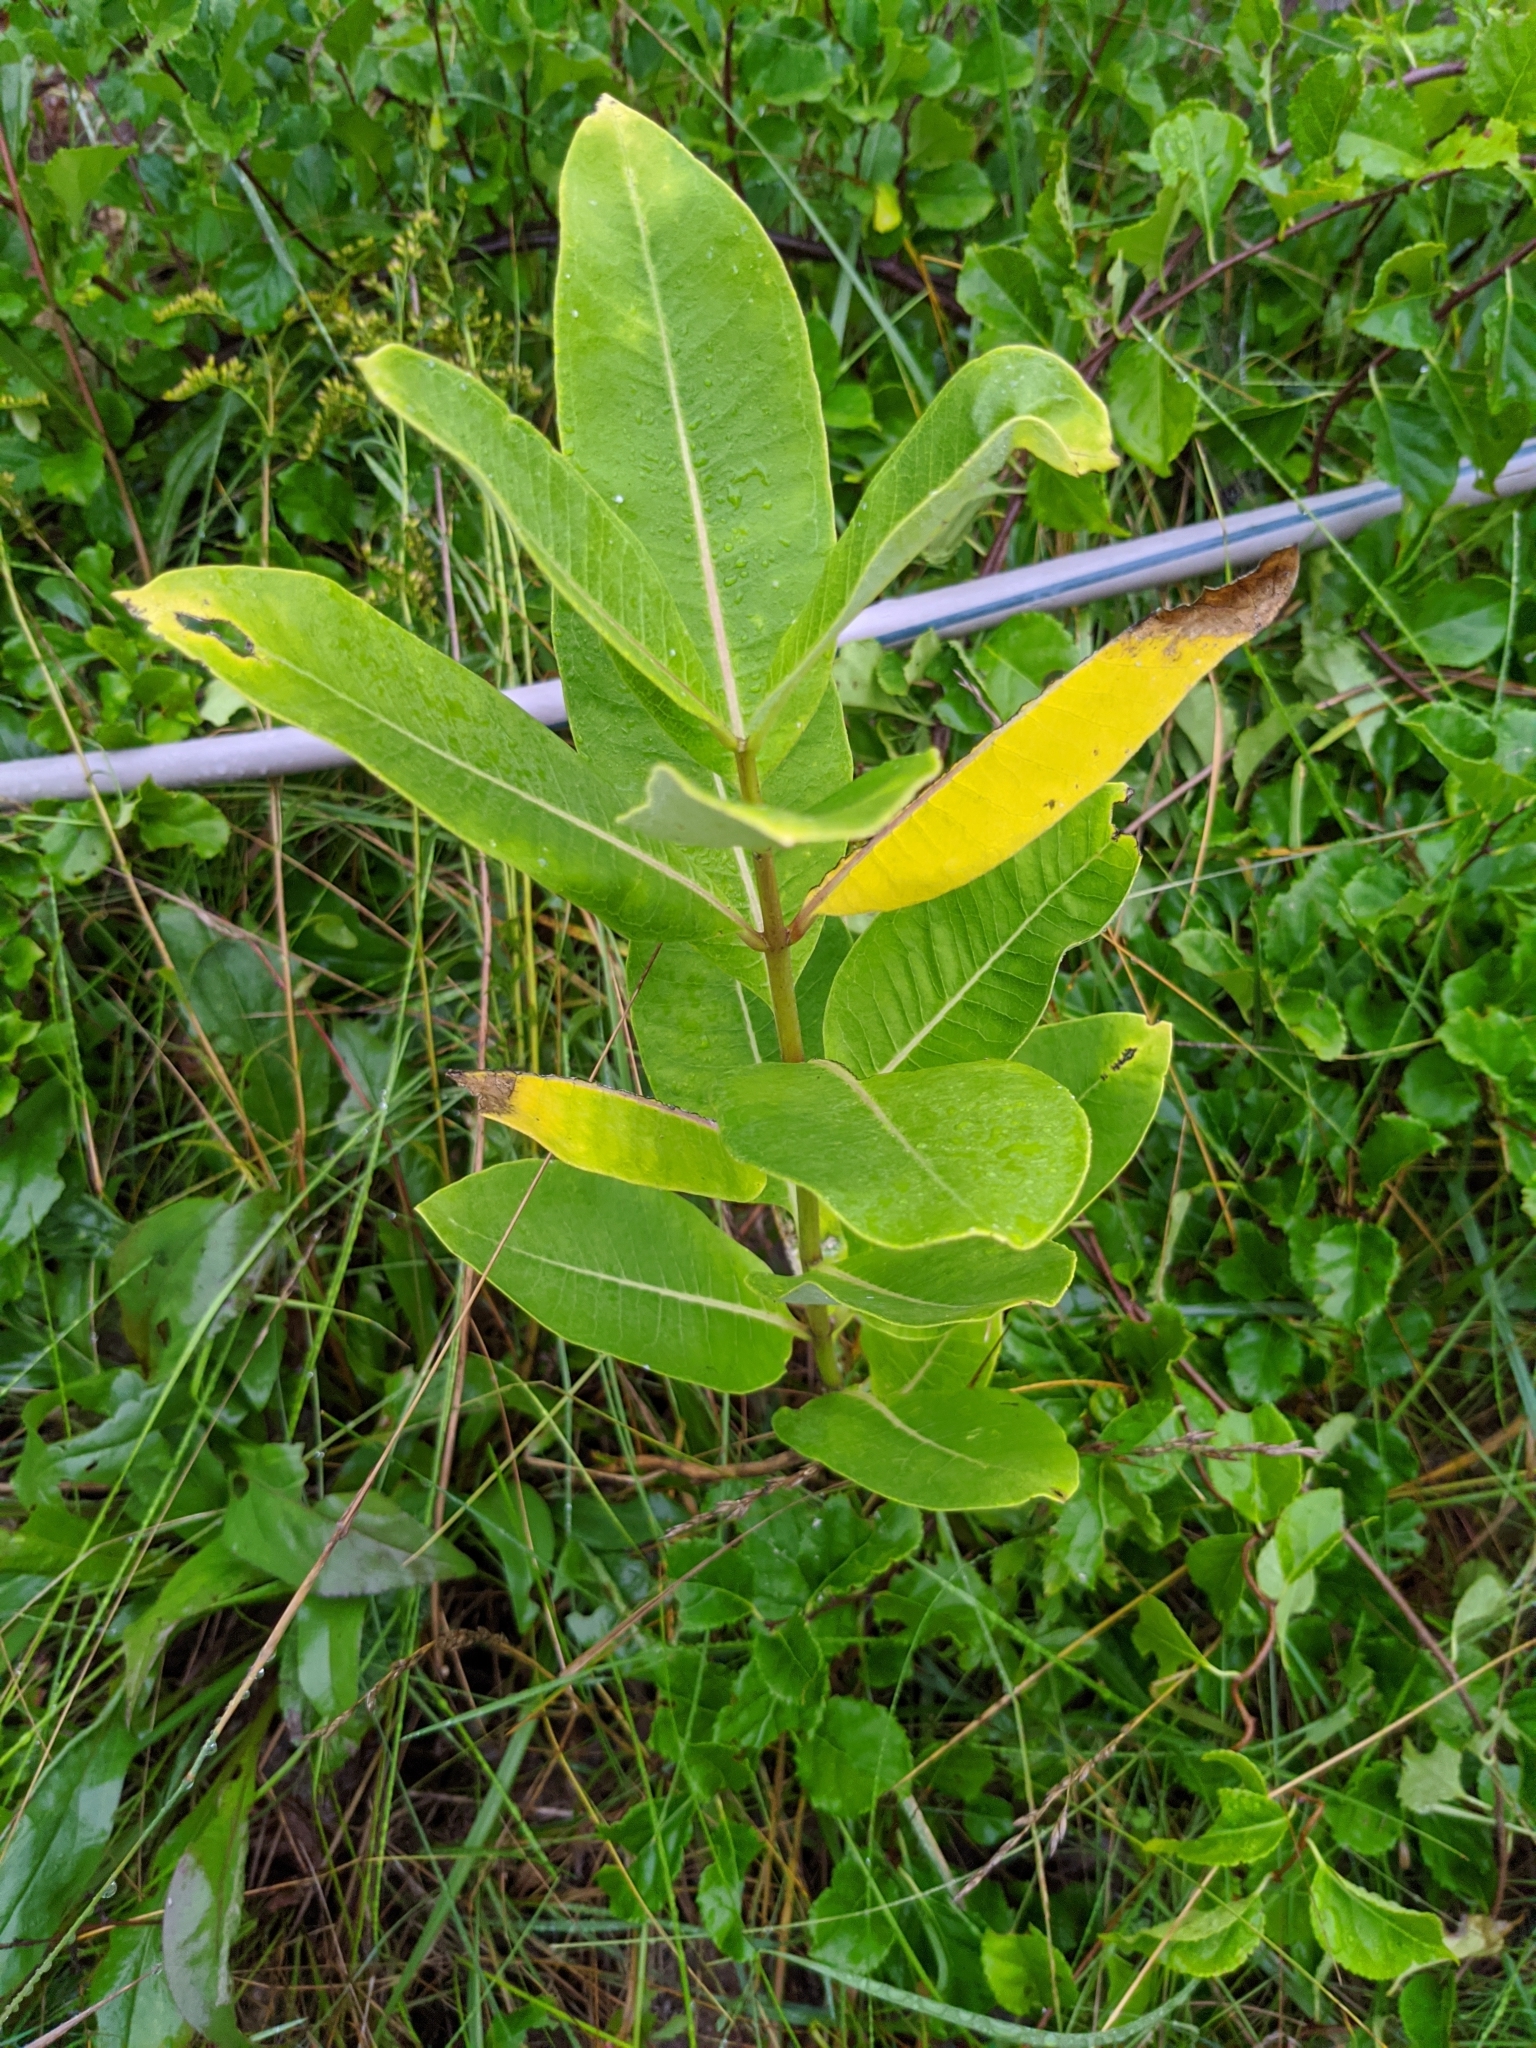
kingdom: Plantae
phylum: Tracheophyta
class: Magnoliopsida
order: Gentianales
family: Apocynaceae
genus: Asclepias
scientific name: Asclepias syriaca
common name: Common milkweed
